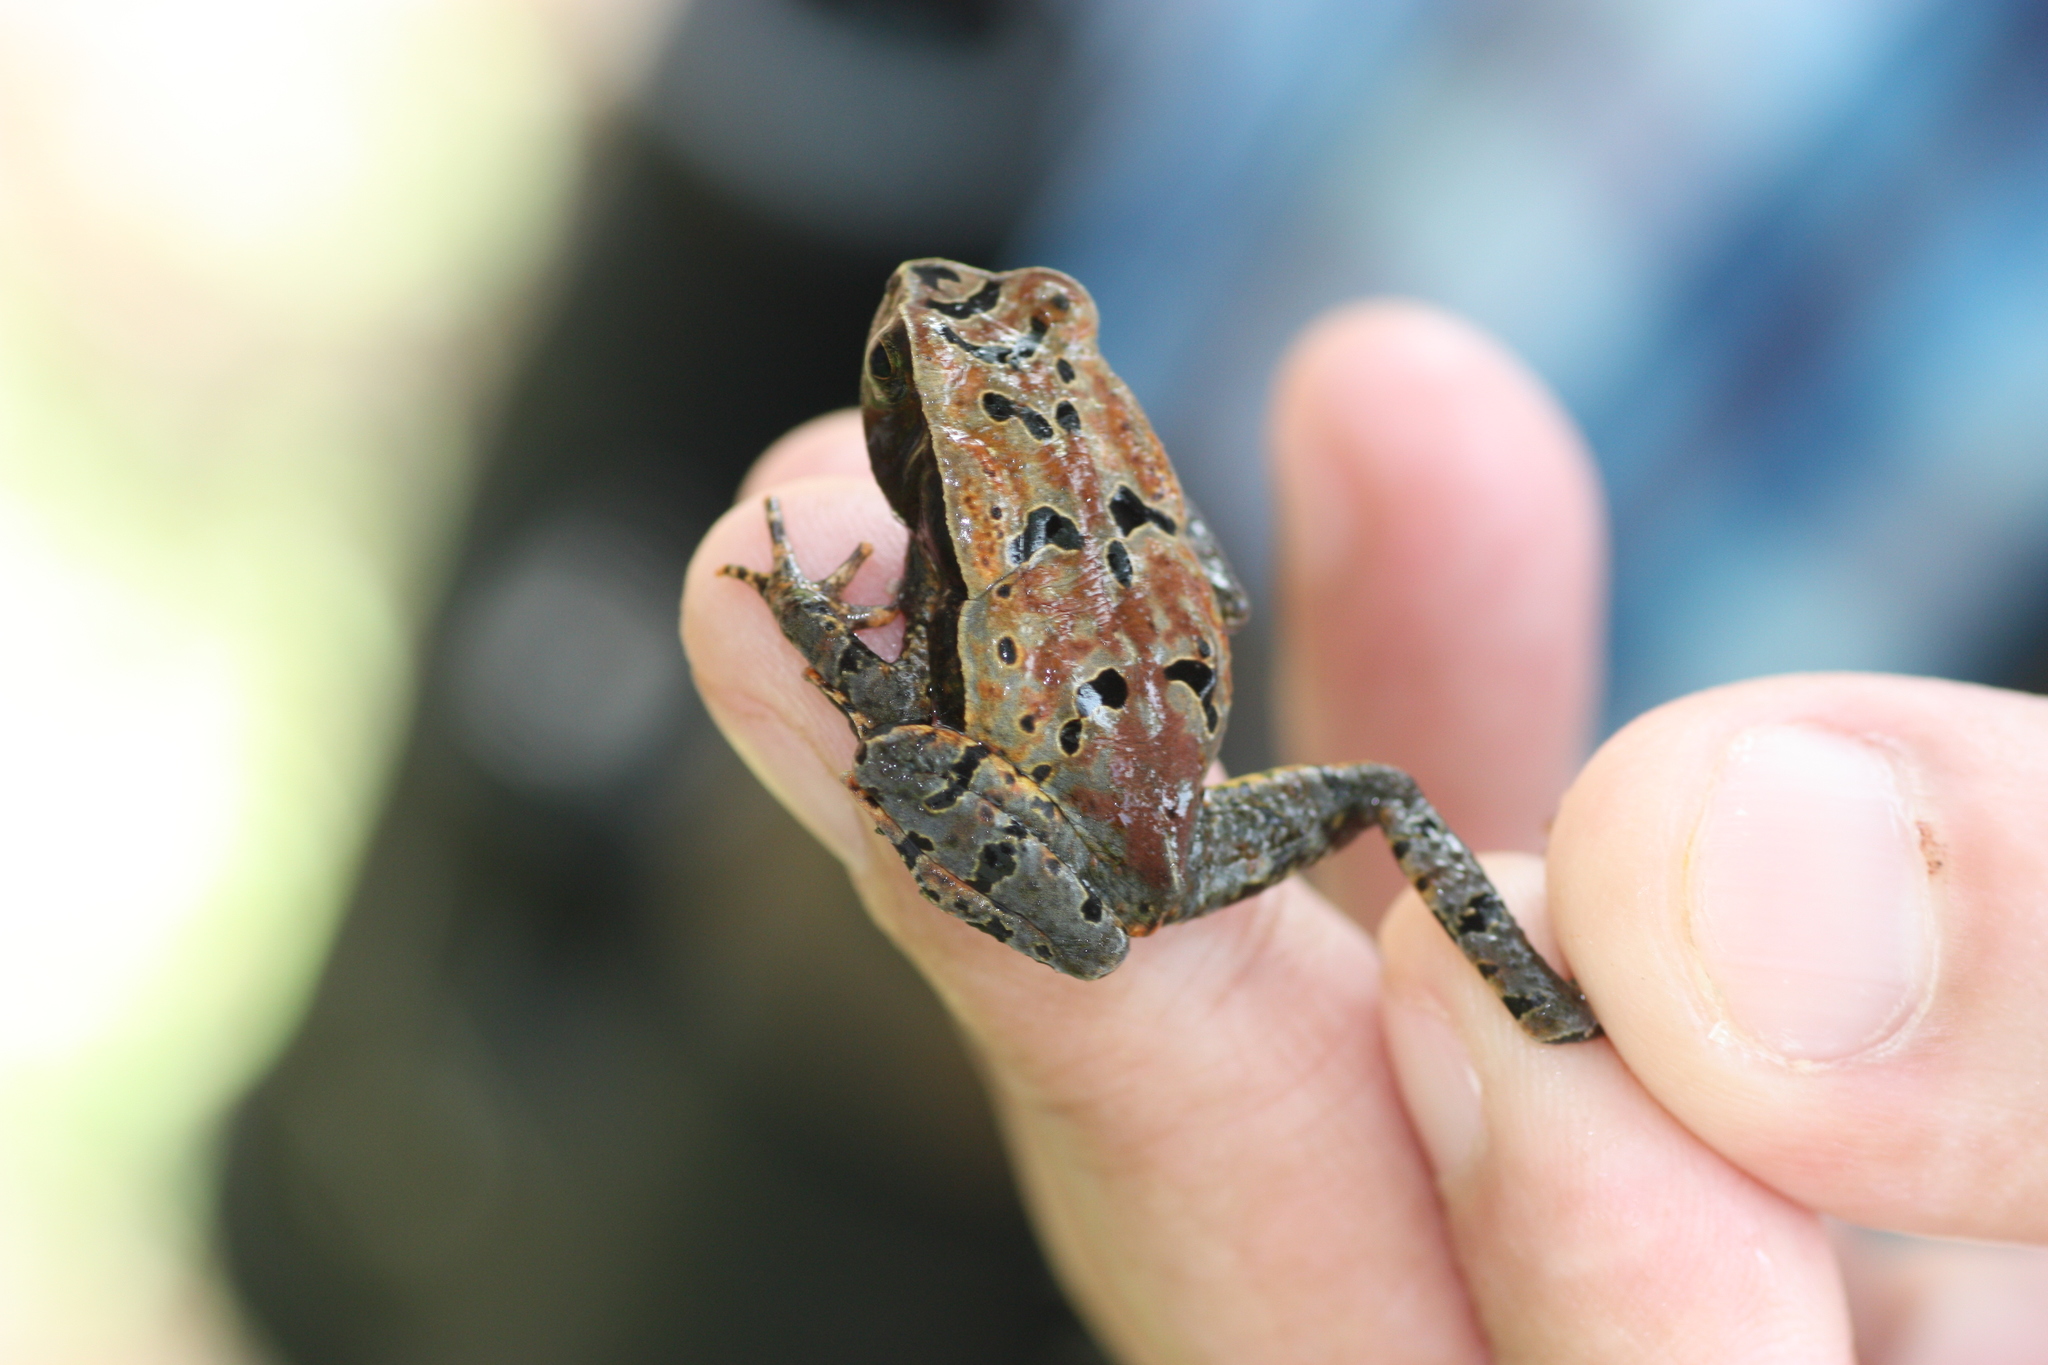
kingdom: Animalia
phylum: Chordata
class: Amphibia
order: Anura
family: Bufonidae
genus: Rhaebo
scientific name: Rhaebo haematiticus
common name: Truando toad
